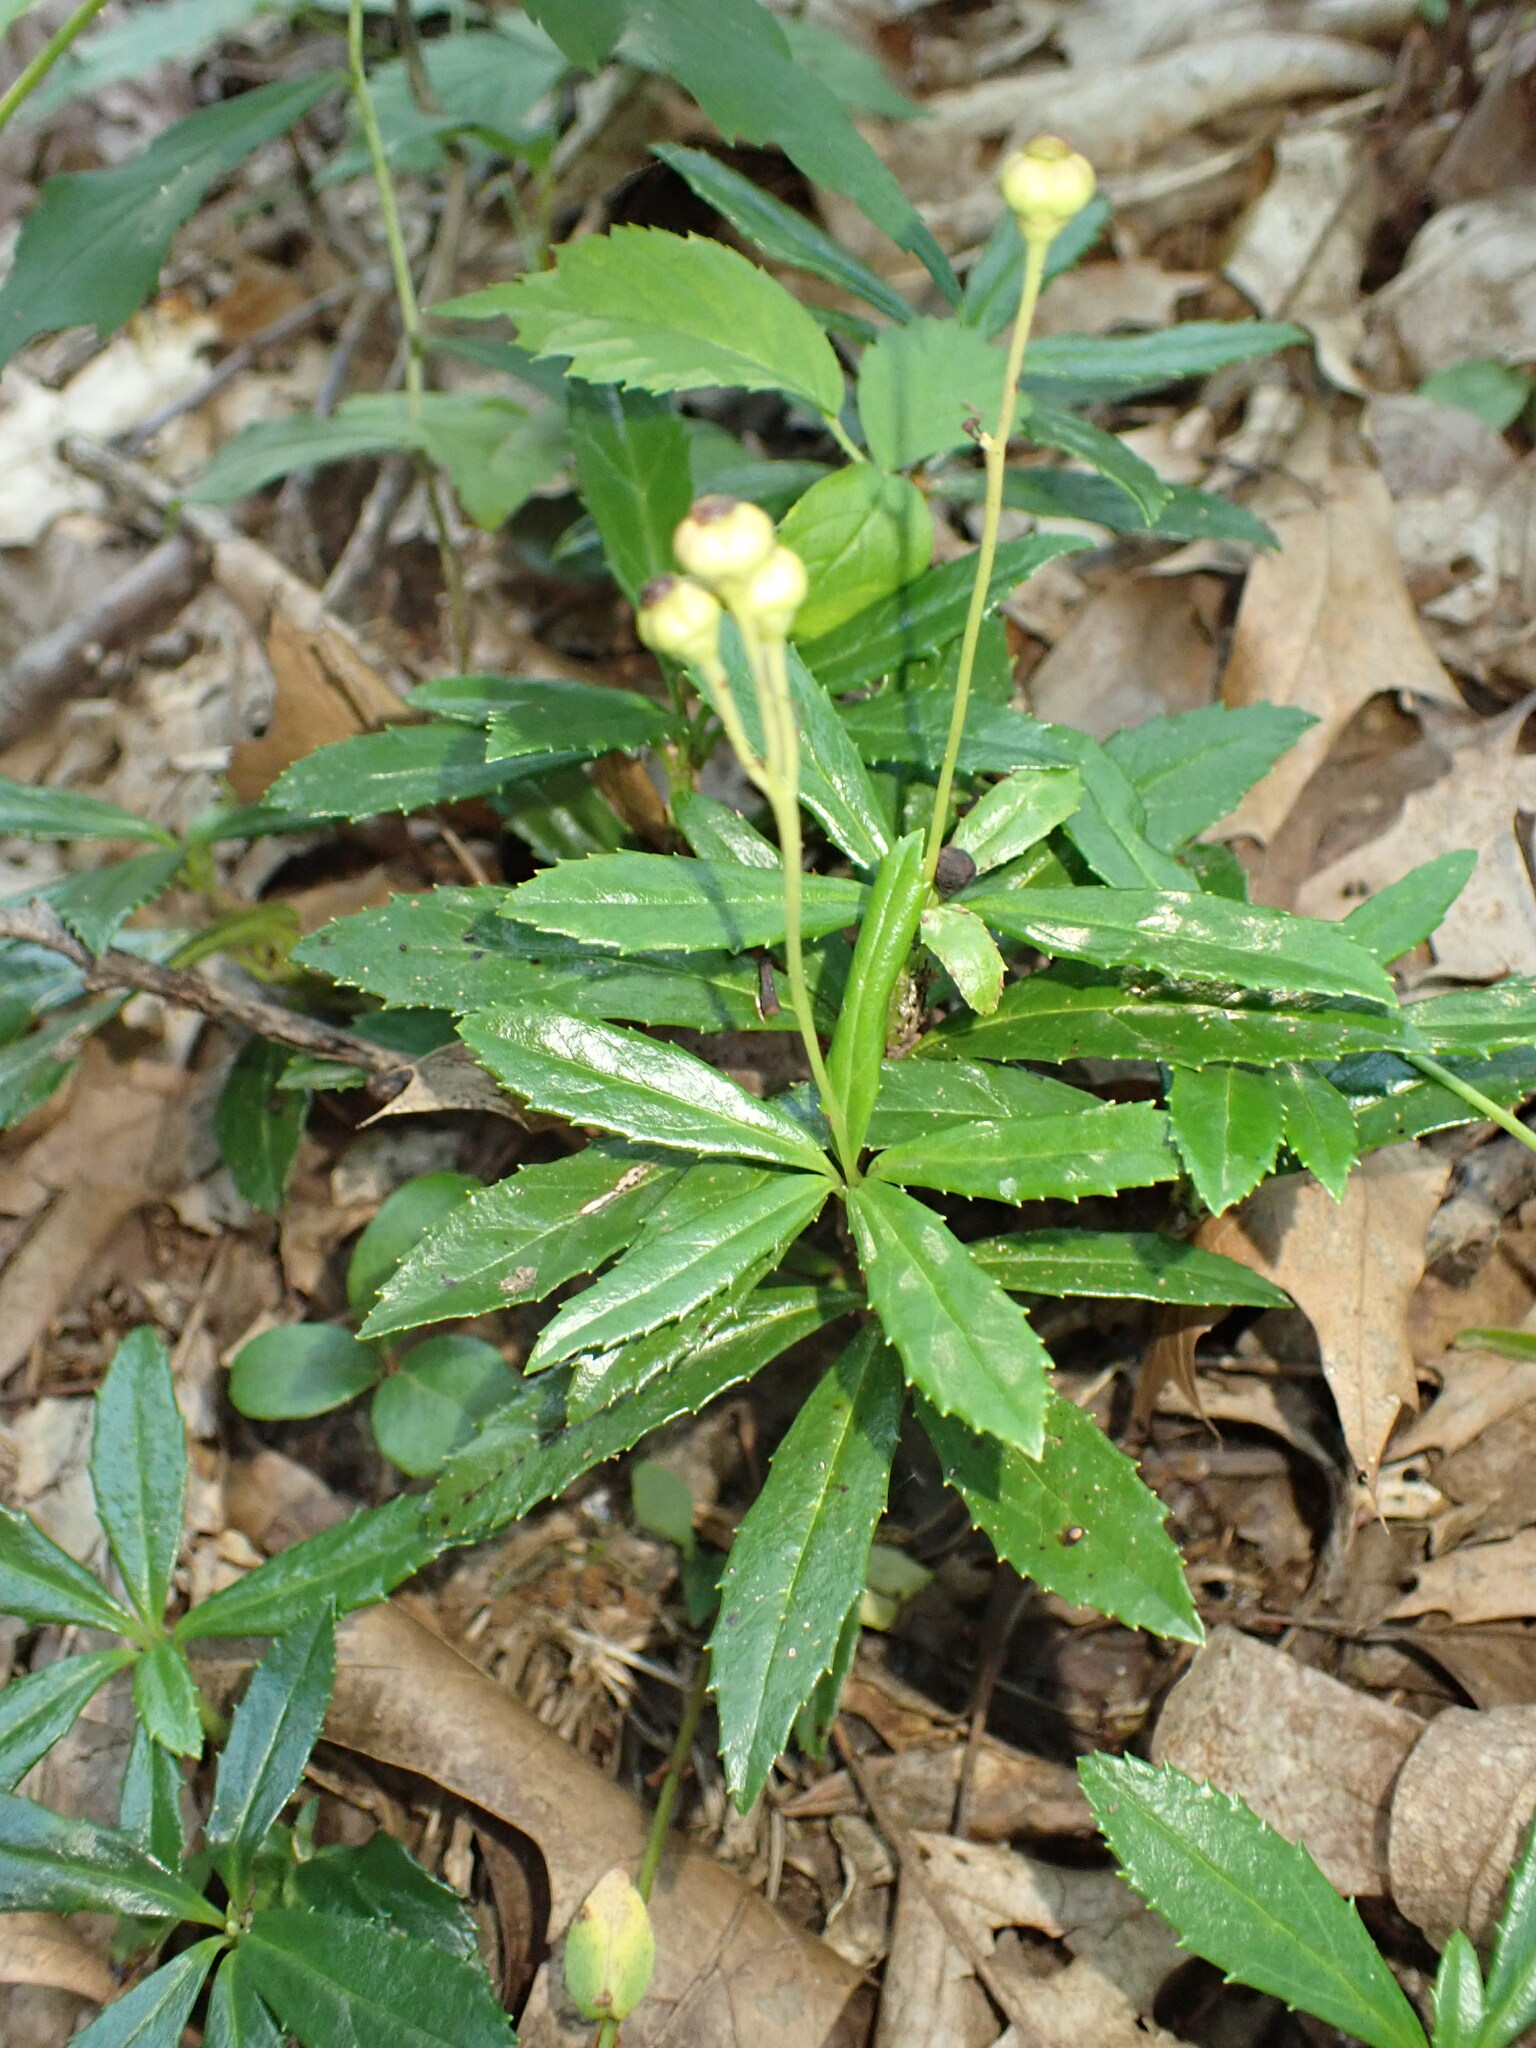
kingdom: Plantae
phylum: Tracheophyta
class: Magnoliopsida
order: Ericales
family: Ericaceae
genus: Chimaphila
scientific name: Chimaphila umbellata
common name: Pipsissewa
